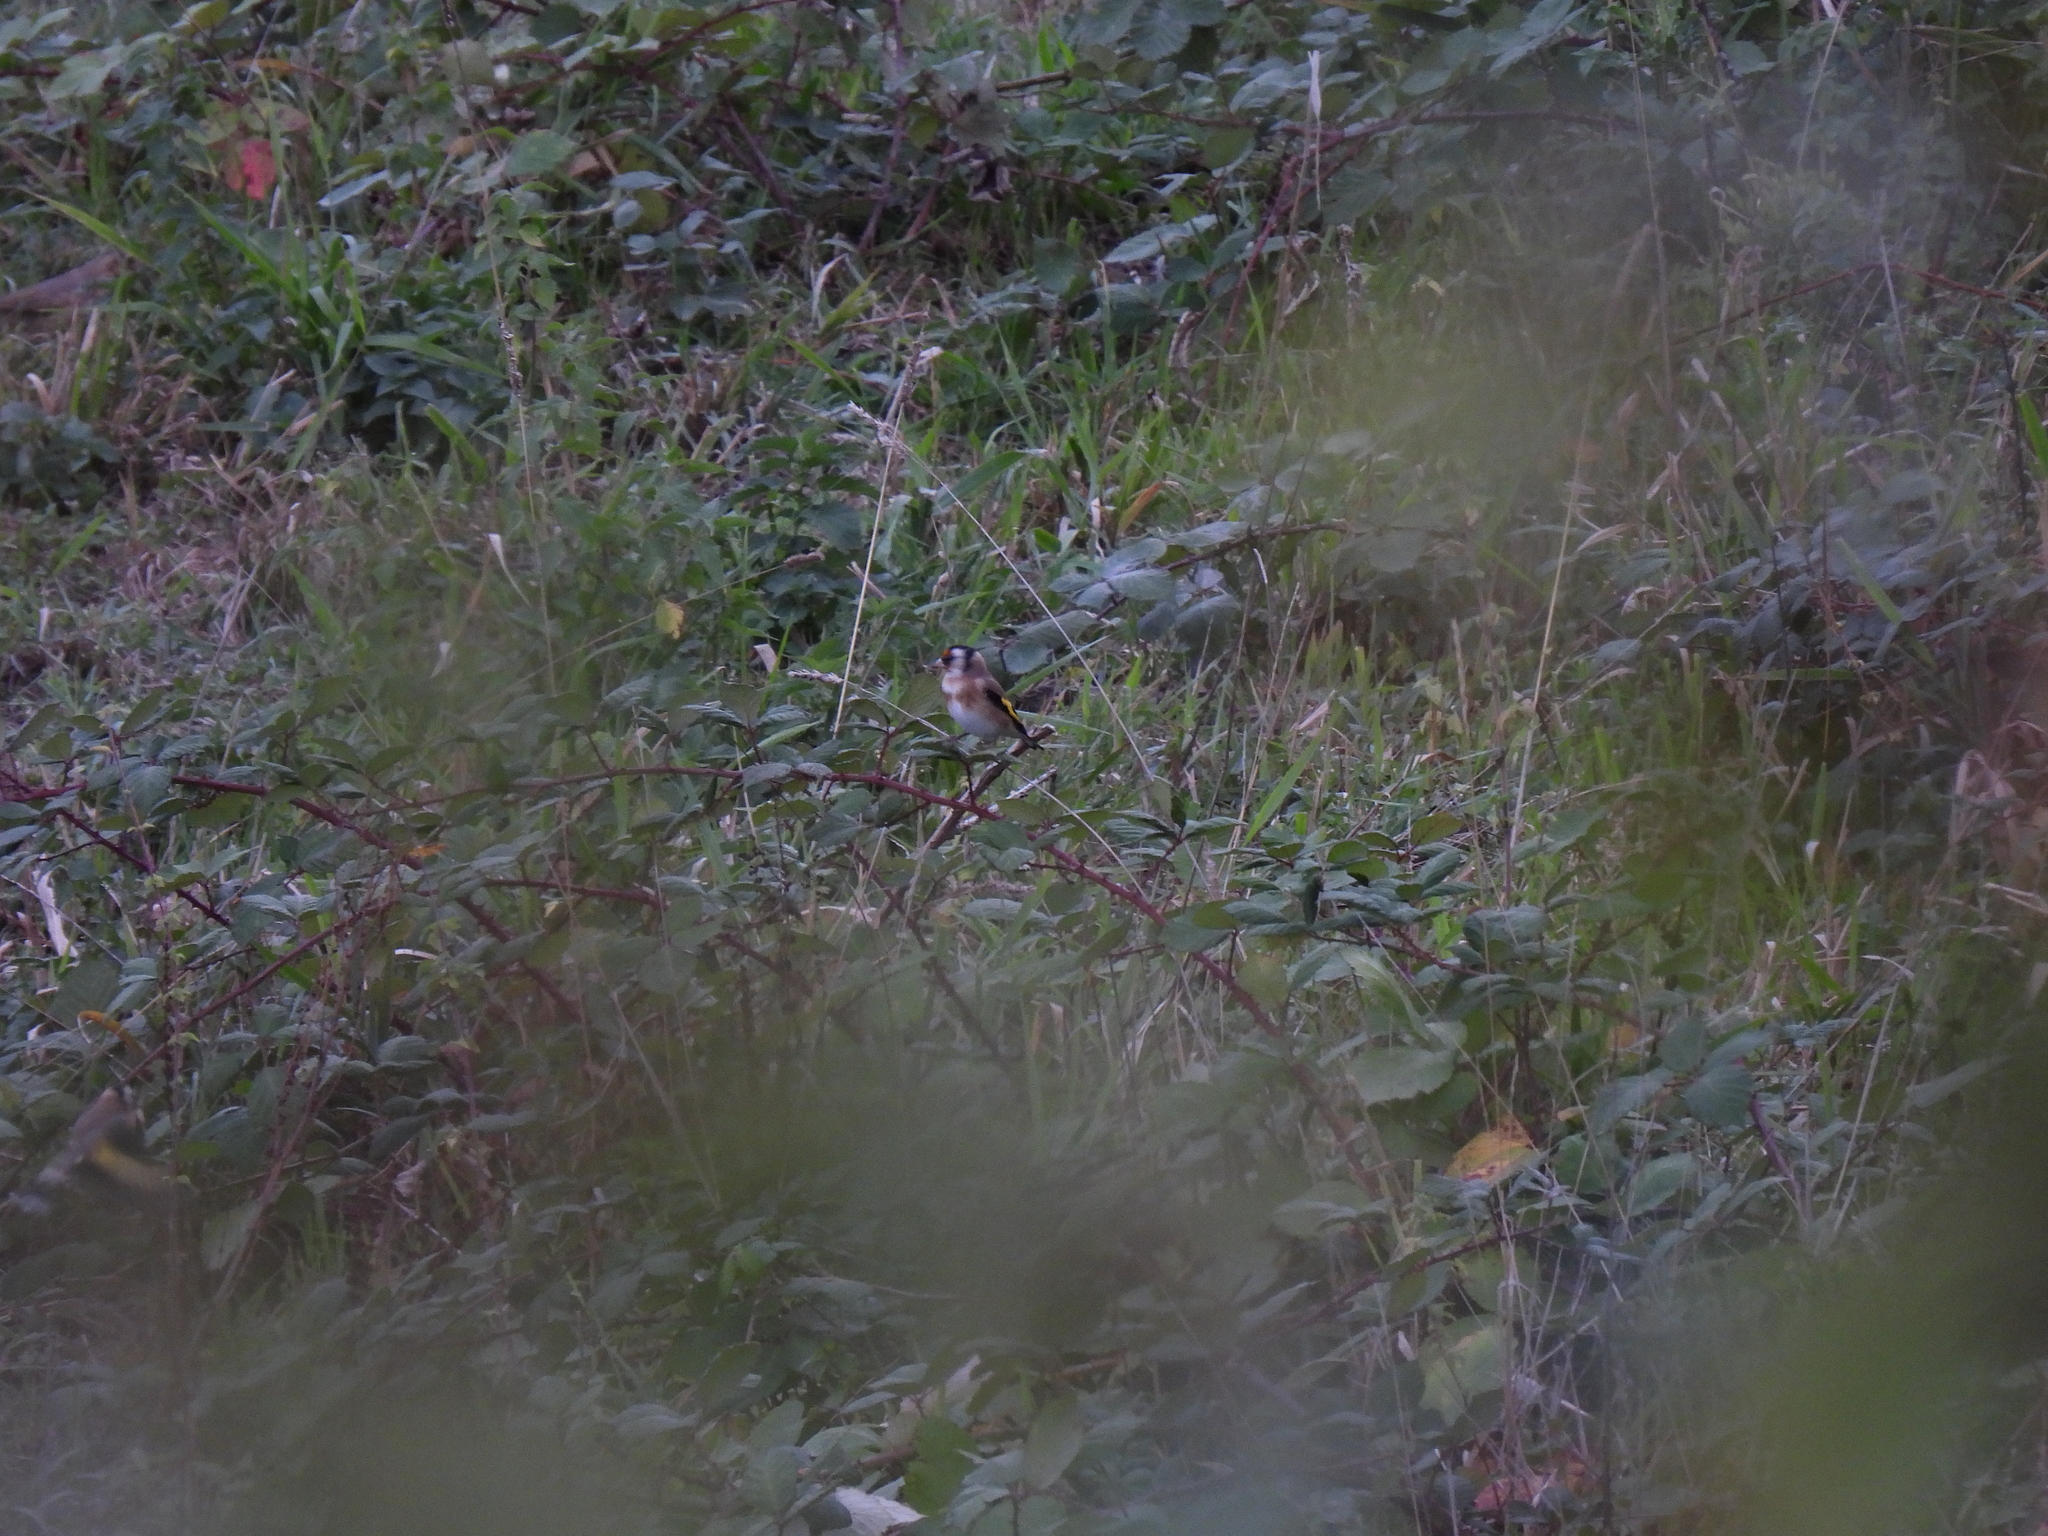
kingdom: Animalia
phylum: Chordata
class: Aves
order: Passeriformes
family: Fringillidae
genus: Carduelis
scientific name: Carduelis carduelis
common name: European goldfinch
